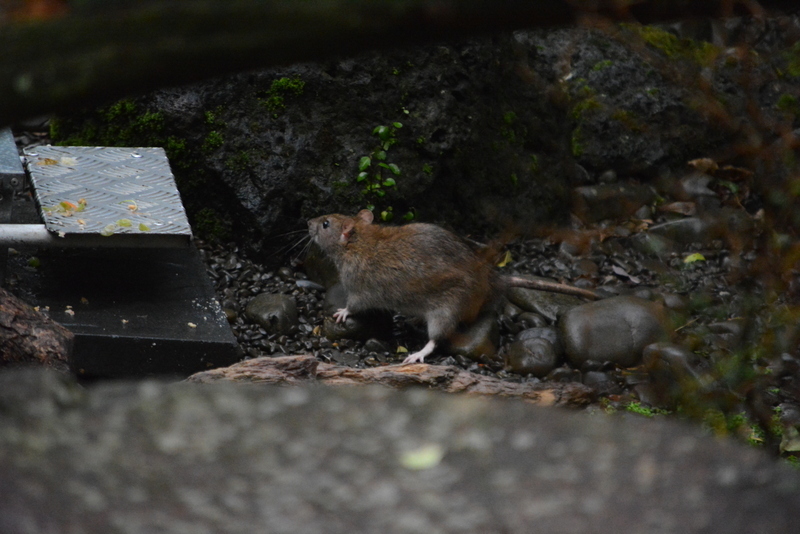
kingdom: Animalia
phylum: Chordata
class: Mammalia
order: Rodentia
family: Muridae
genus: Rattus
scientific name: Rattus norvegicus
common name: Brown rat
